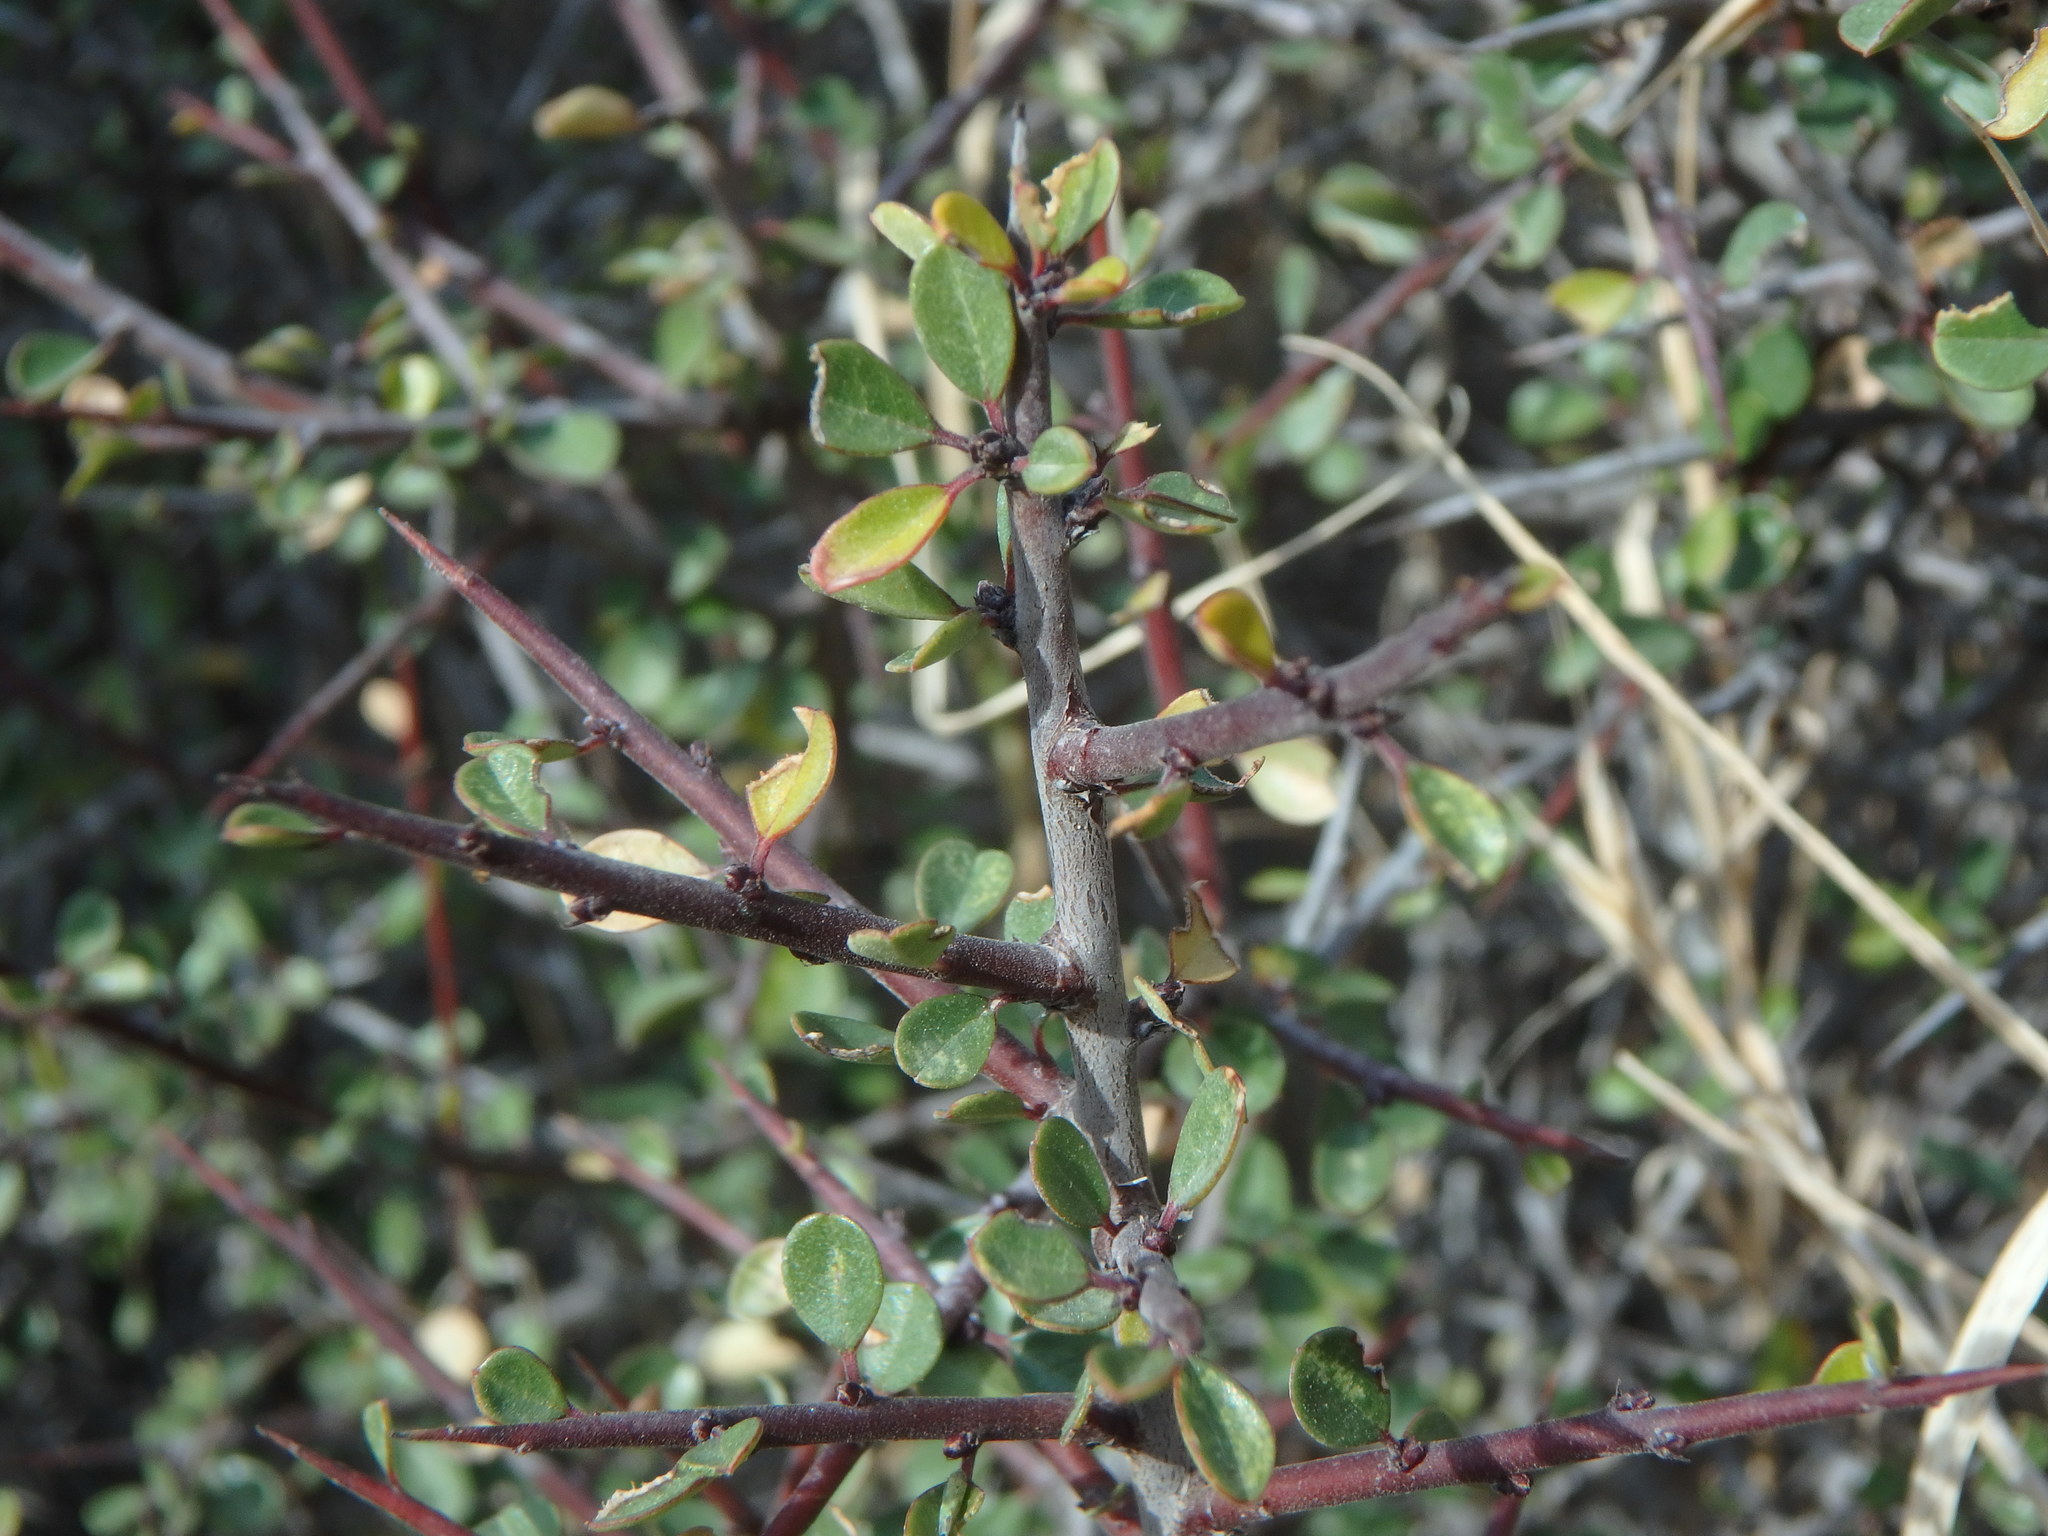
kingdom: Plantae
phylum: Tracheophyta
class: Magnoliopsida
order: Rosales
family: Rhamnaceae
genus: Rhamnus
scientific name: Rhamnus lycioides
